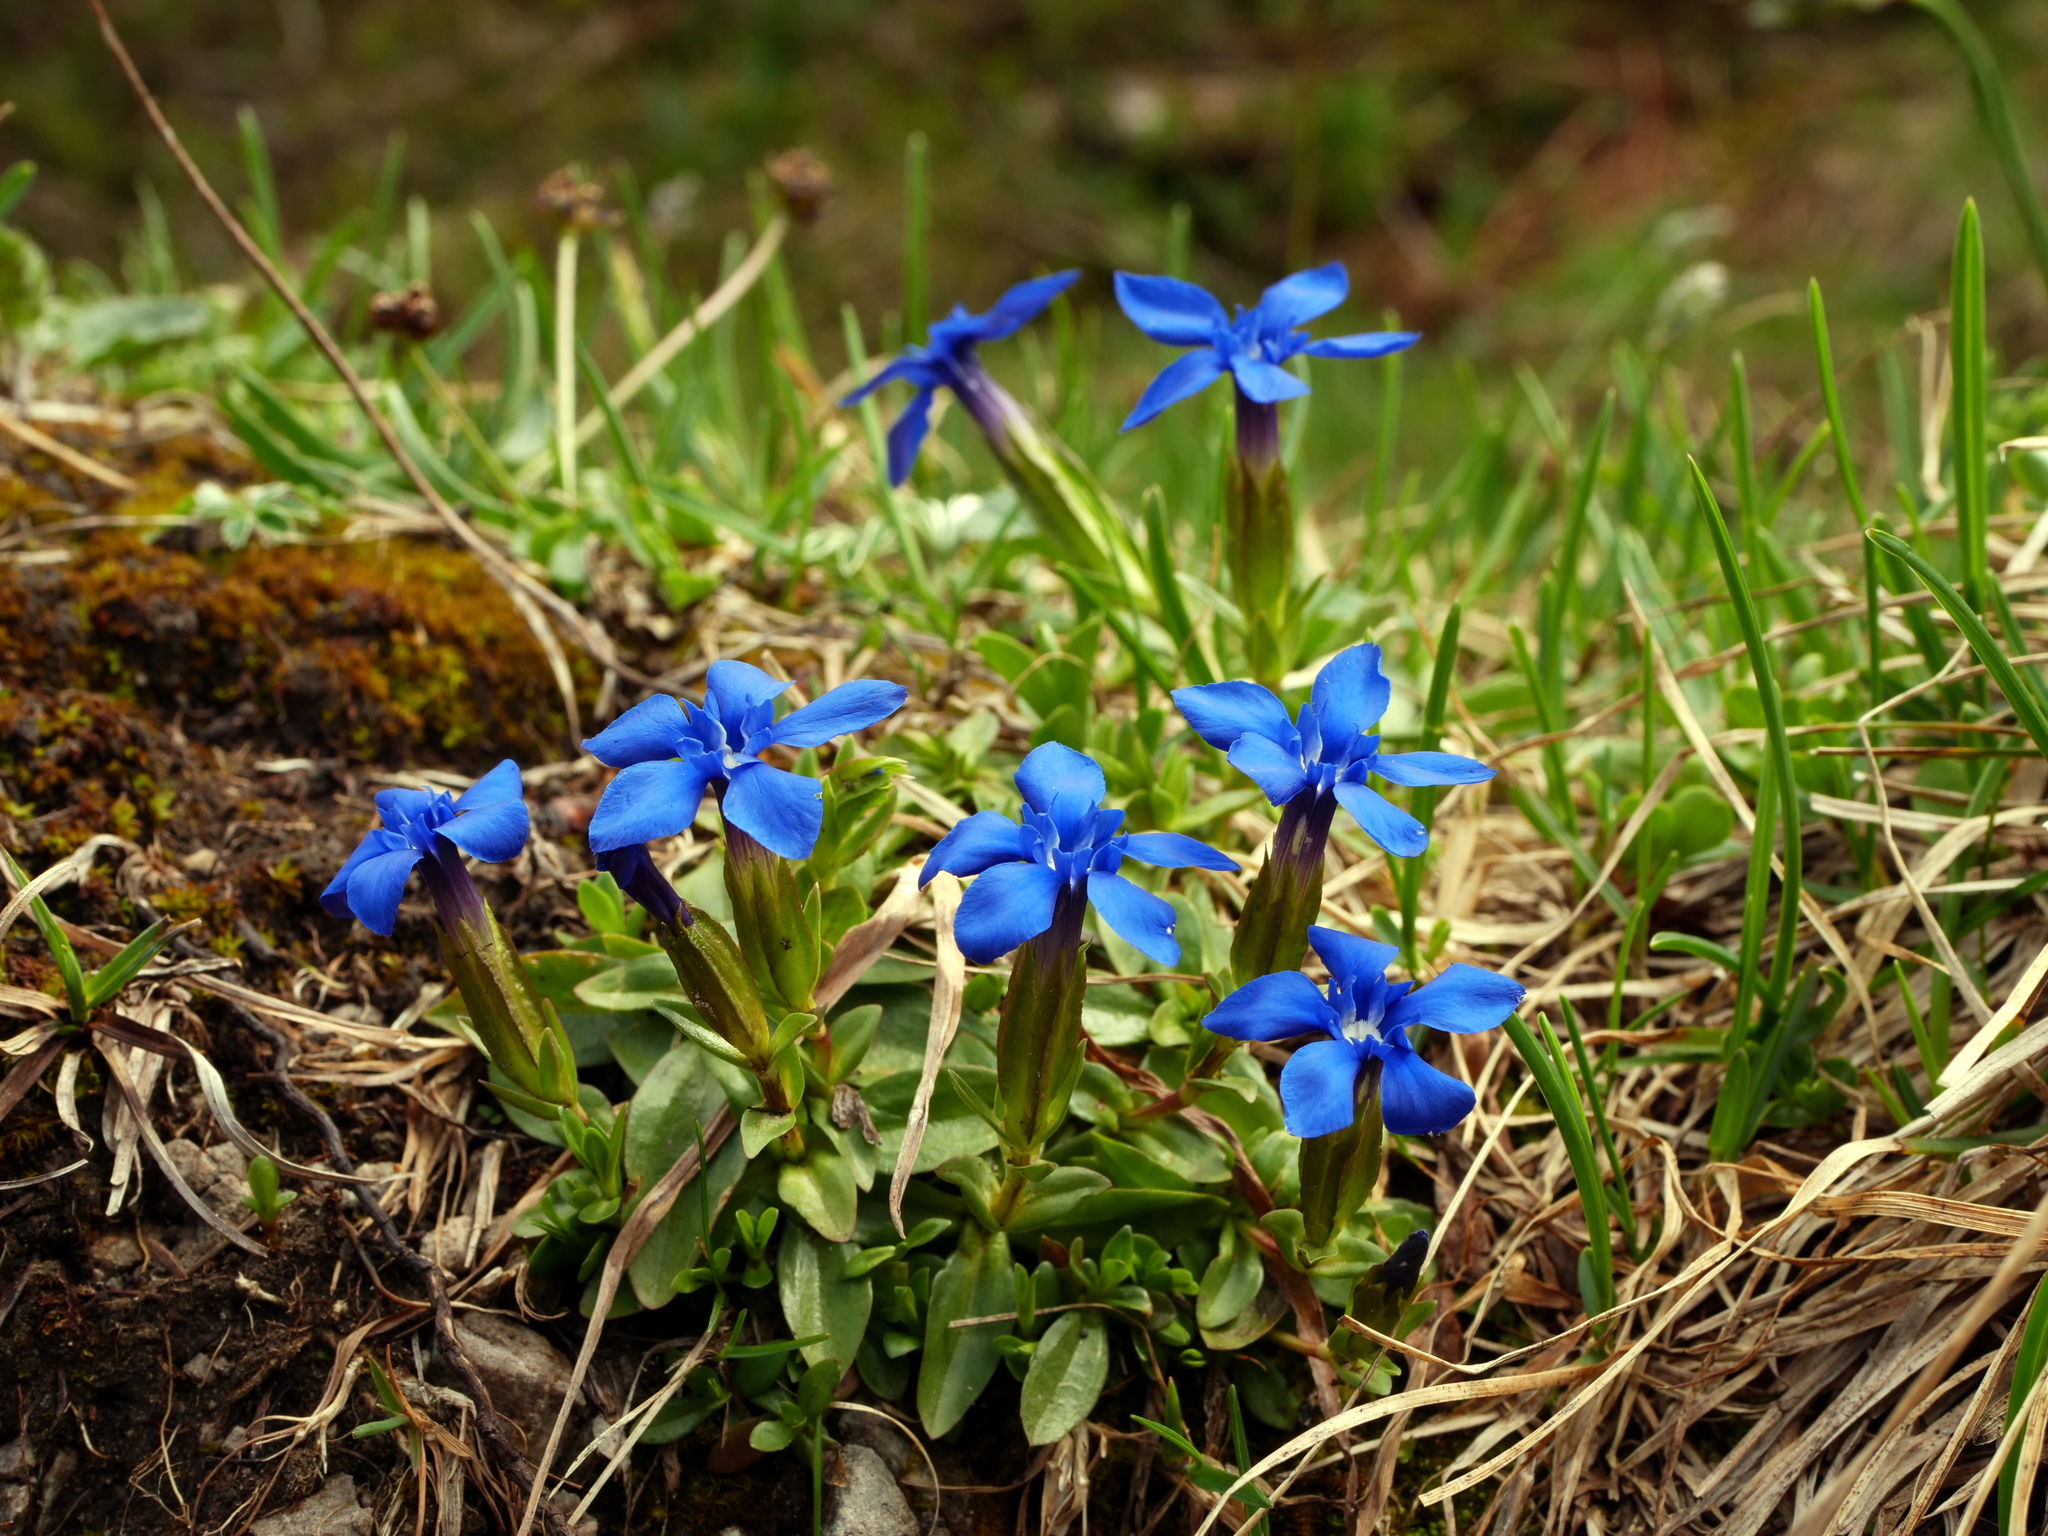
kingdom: Plantae
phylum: Tracheophyta
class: Magnoliopsida
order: Gentianales
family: Gentianaceae
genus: Gentiana
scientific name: Gentiana verna
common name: Spring gentian
